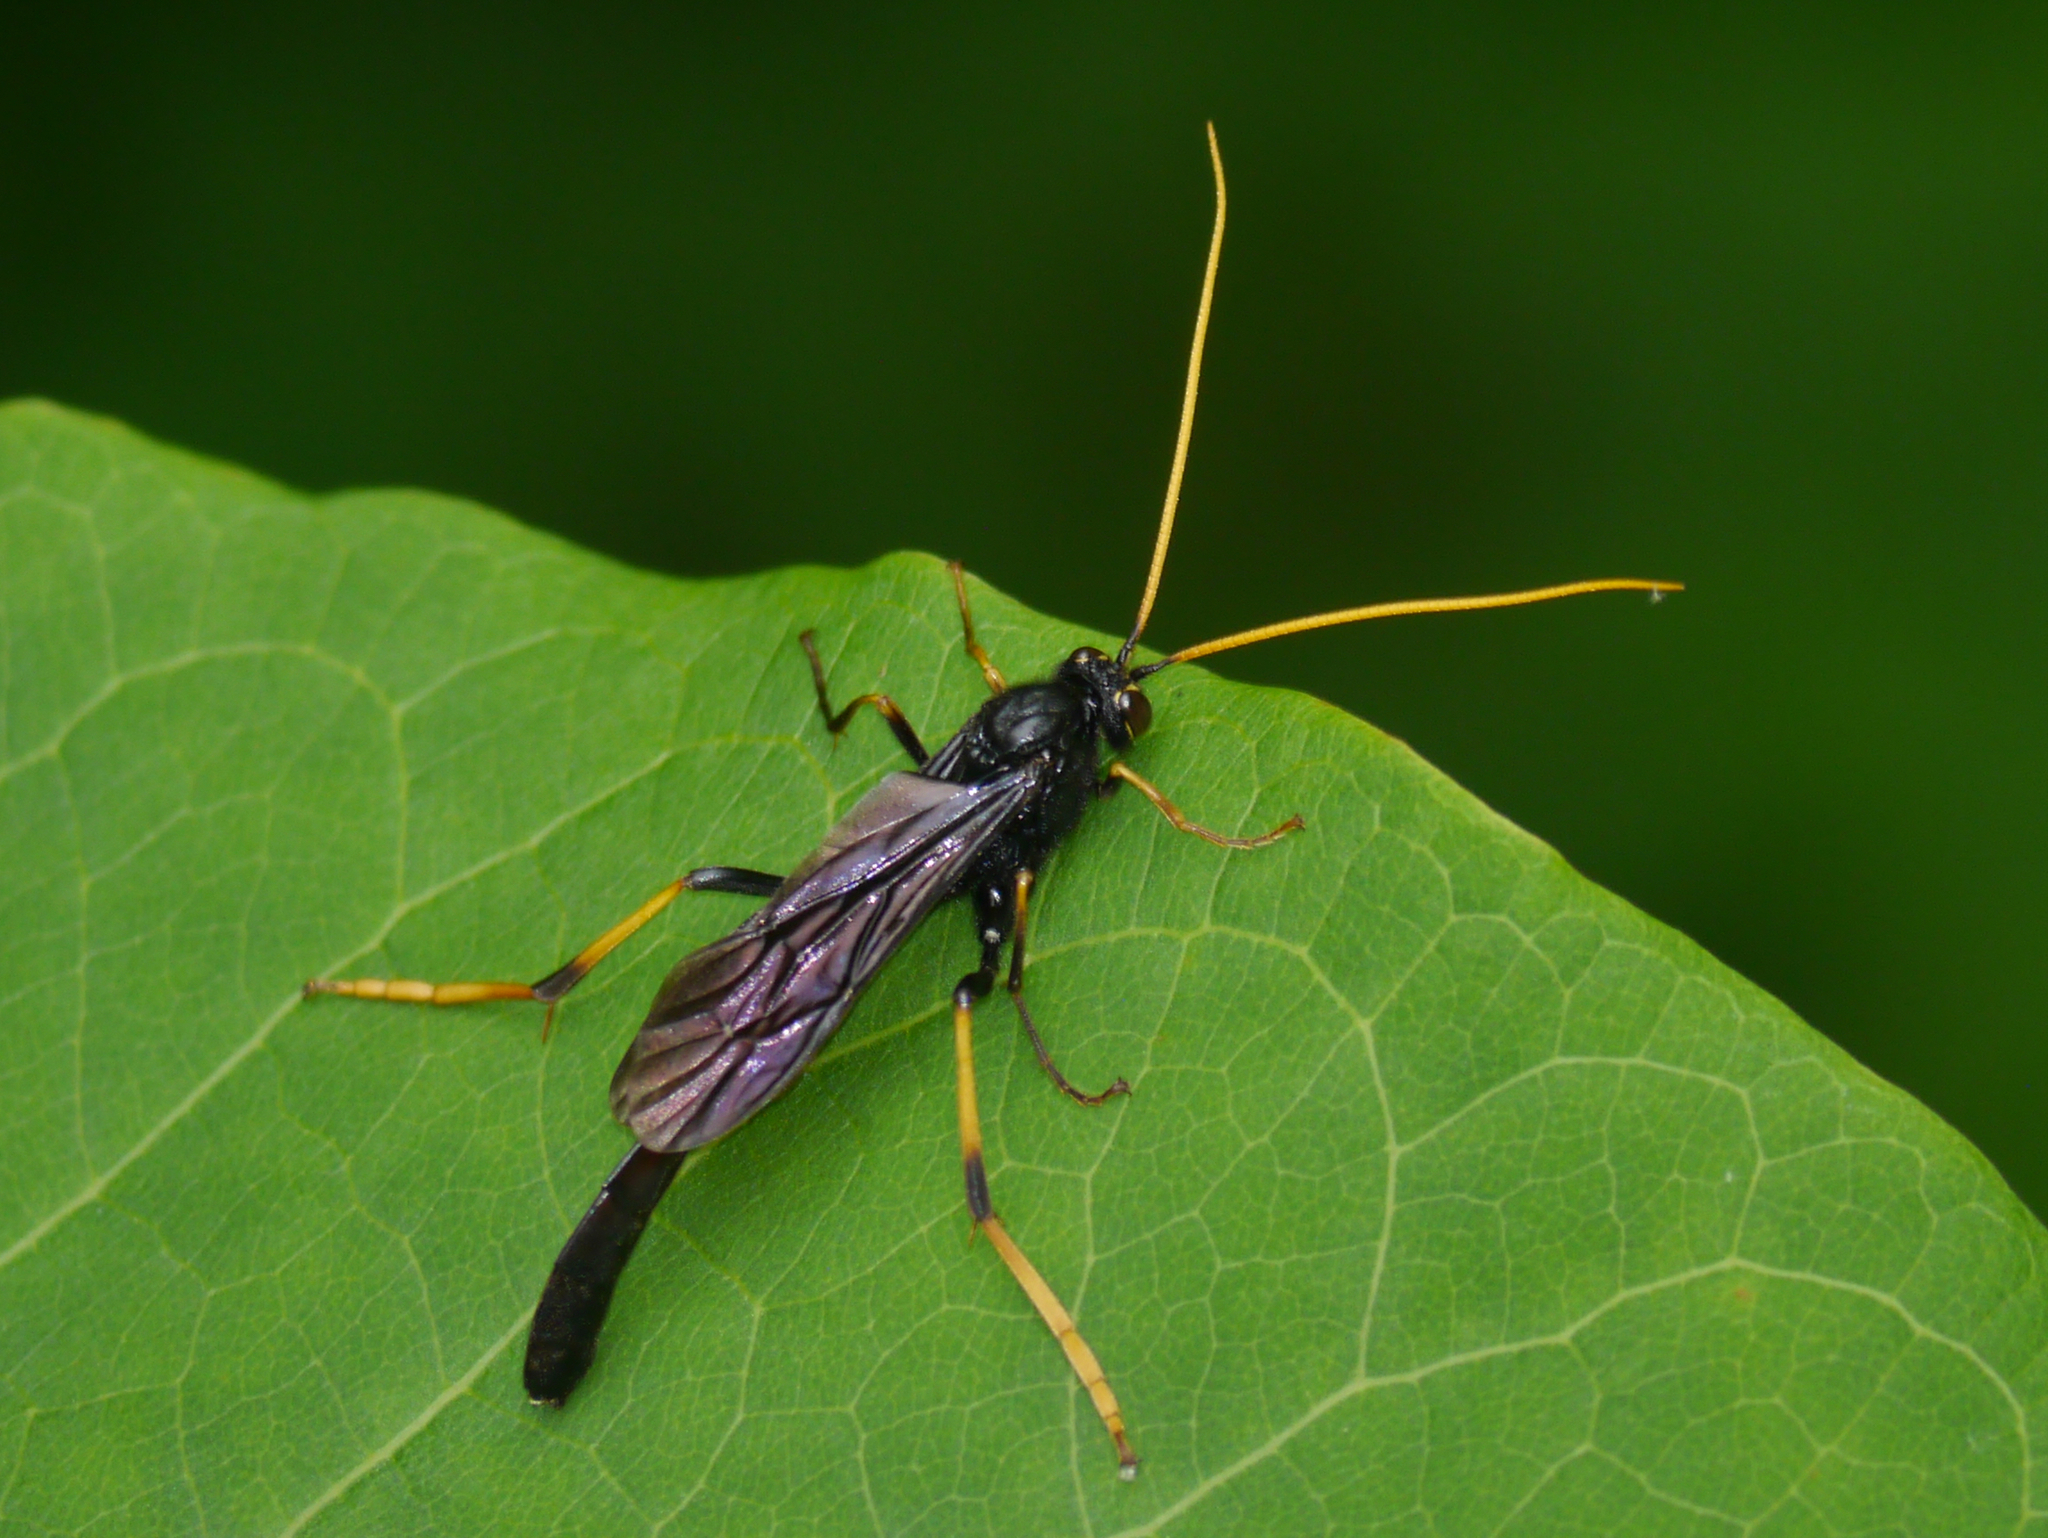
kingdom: Animalia
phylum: Arthropoda
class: Insecta
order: Hymenoptera
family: Ichneumonidae
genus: Therion
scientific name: Therion morio
